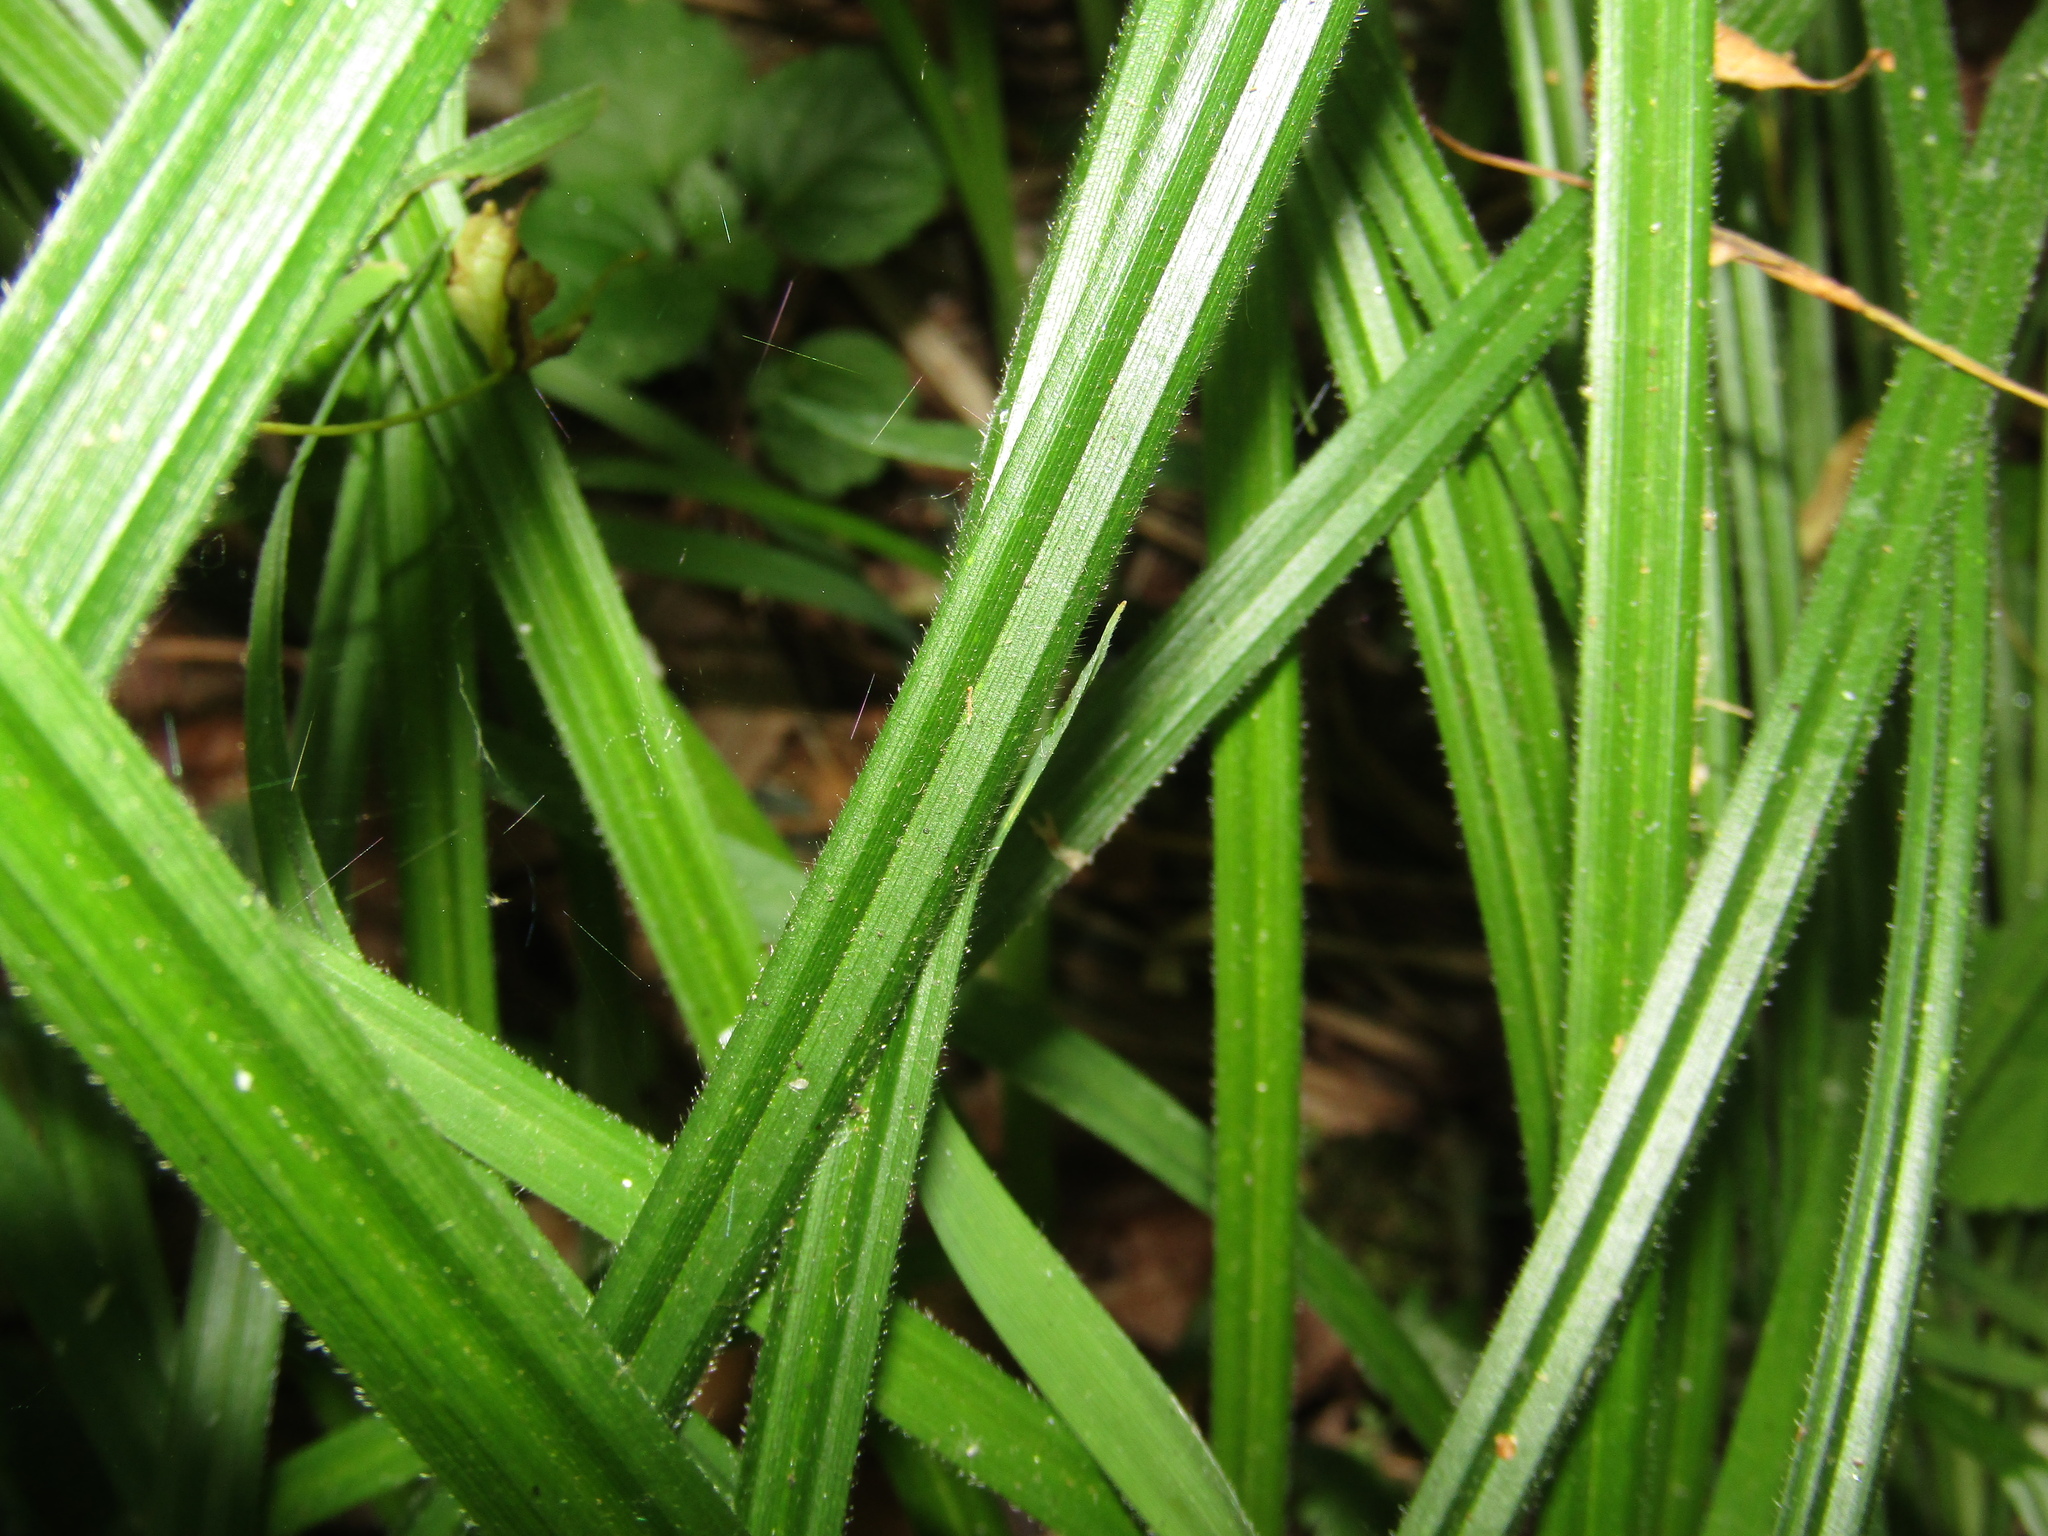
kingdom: Plantae
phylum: Tracheophyta
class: Liliopsida
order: Poales
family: Cyperaceae
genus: Carex
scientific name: Carex pilosa
